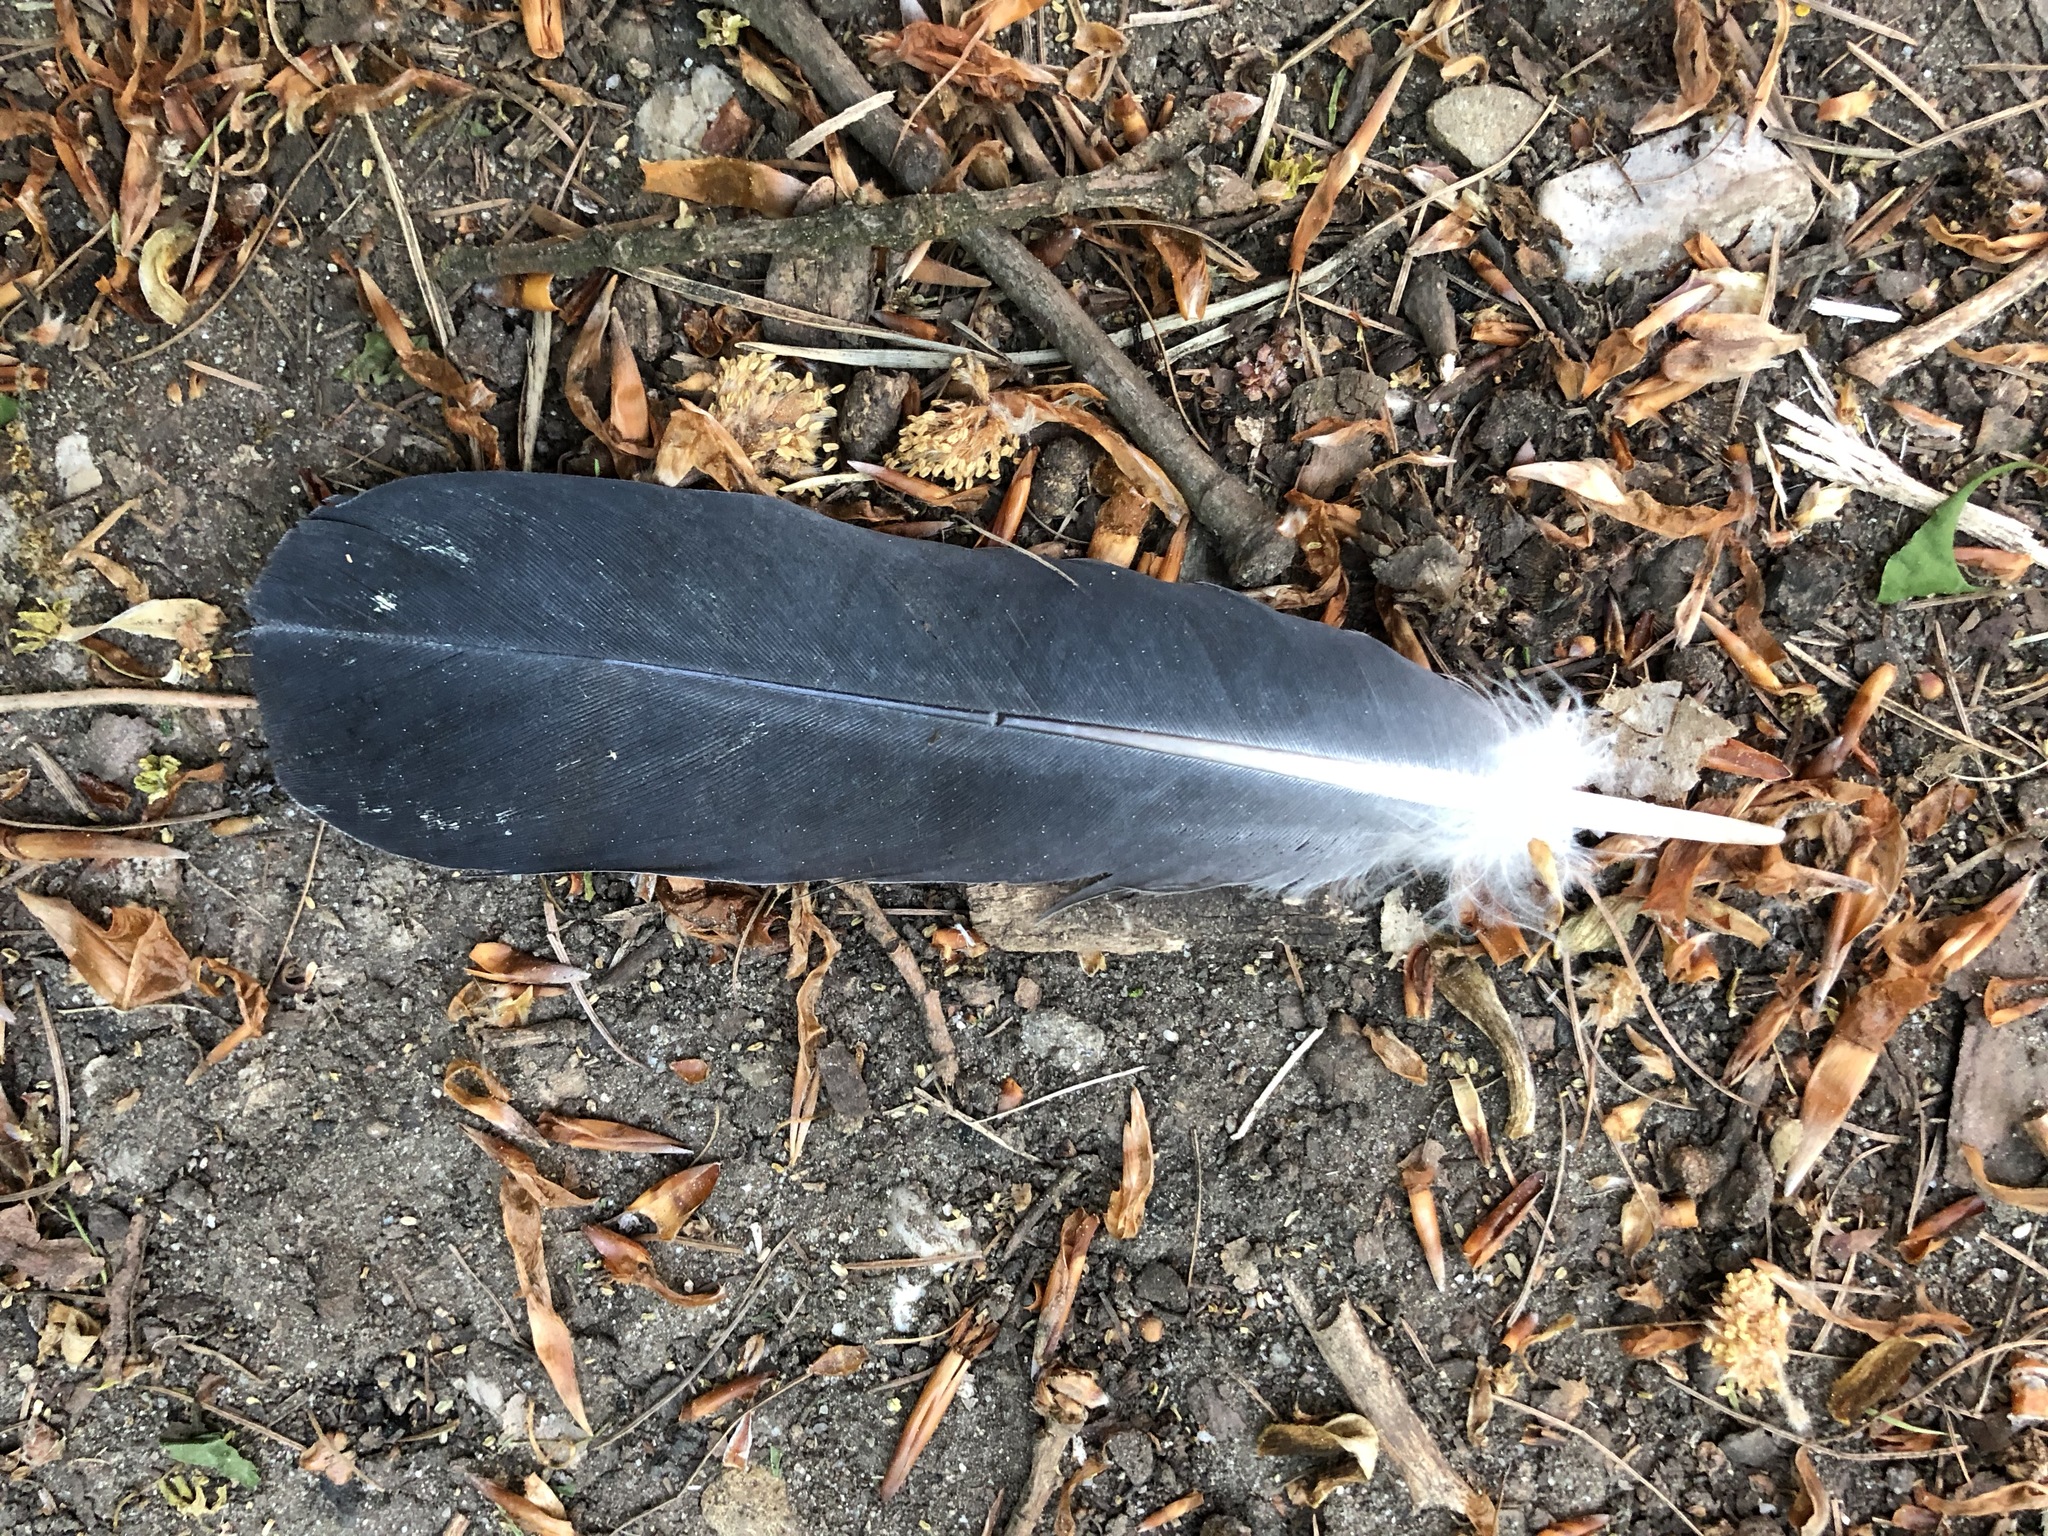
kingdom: Animalia
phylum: Chordata
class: Aves
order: Columbiformes
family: Columbidae
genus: Columba
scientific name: Columba livia
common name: Rock pigeon
